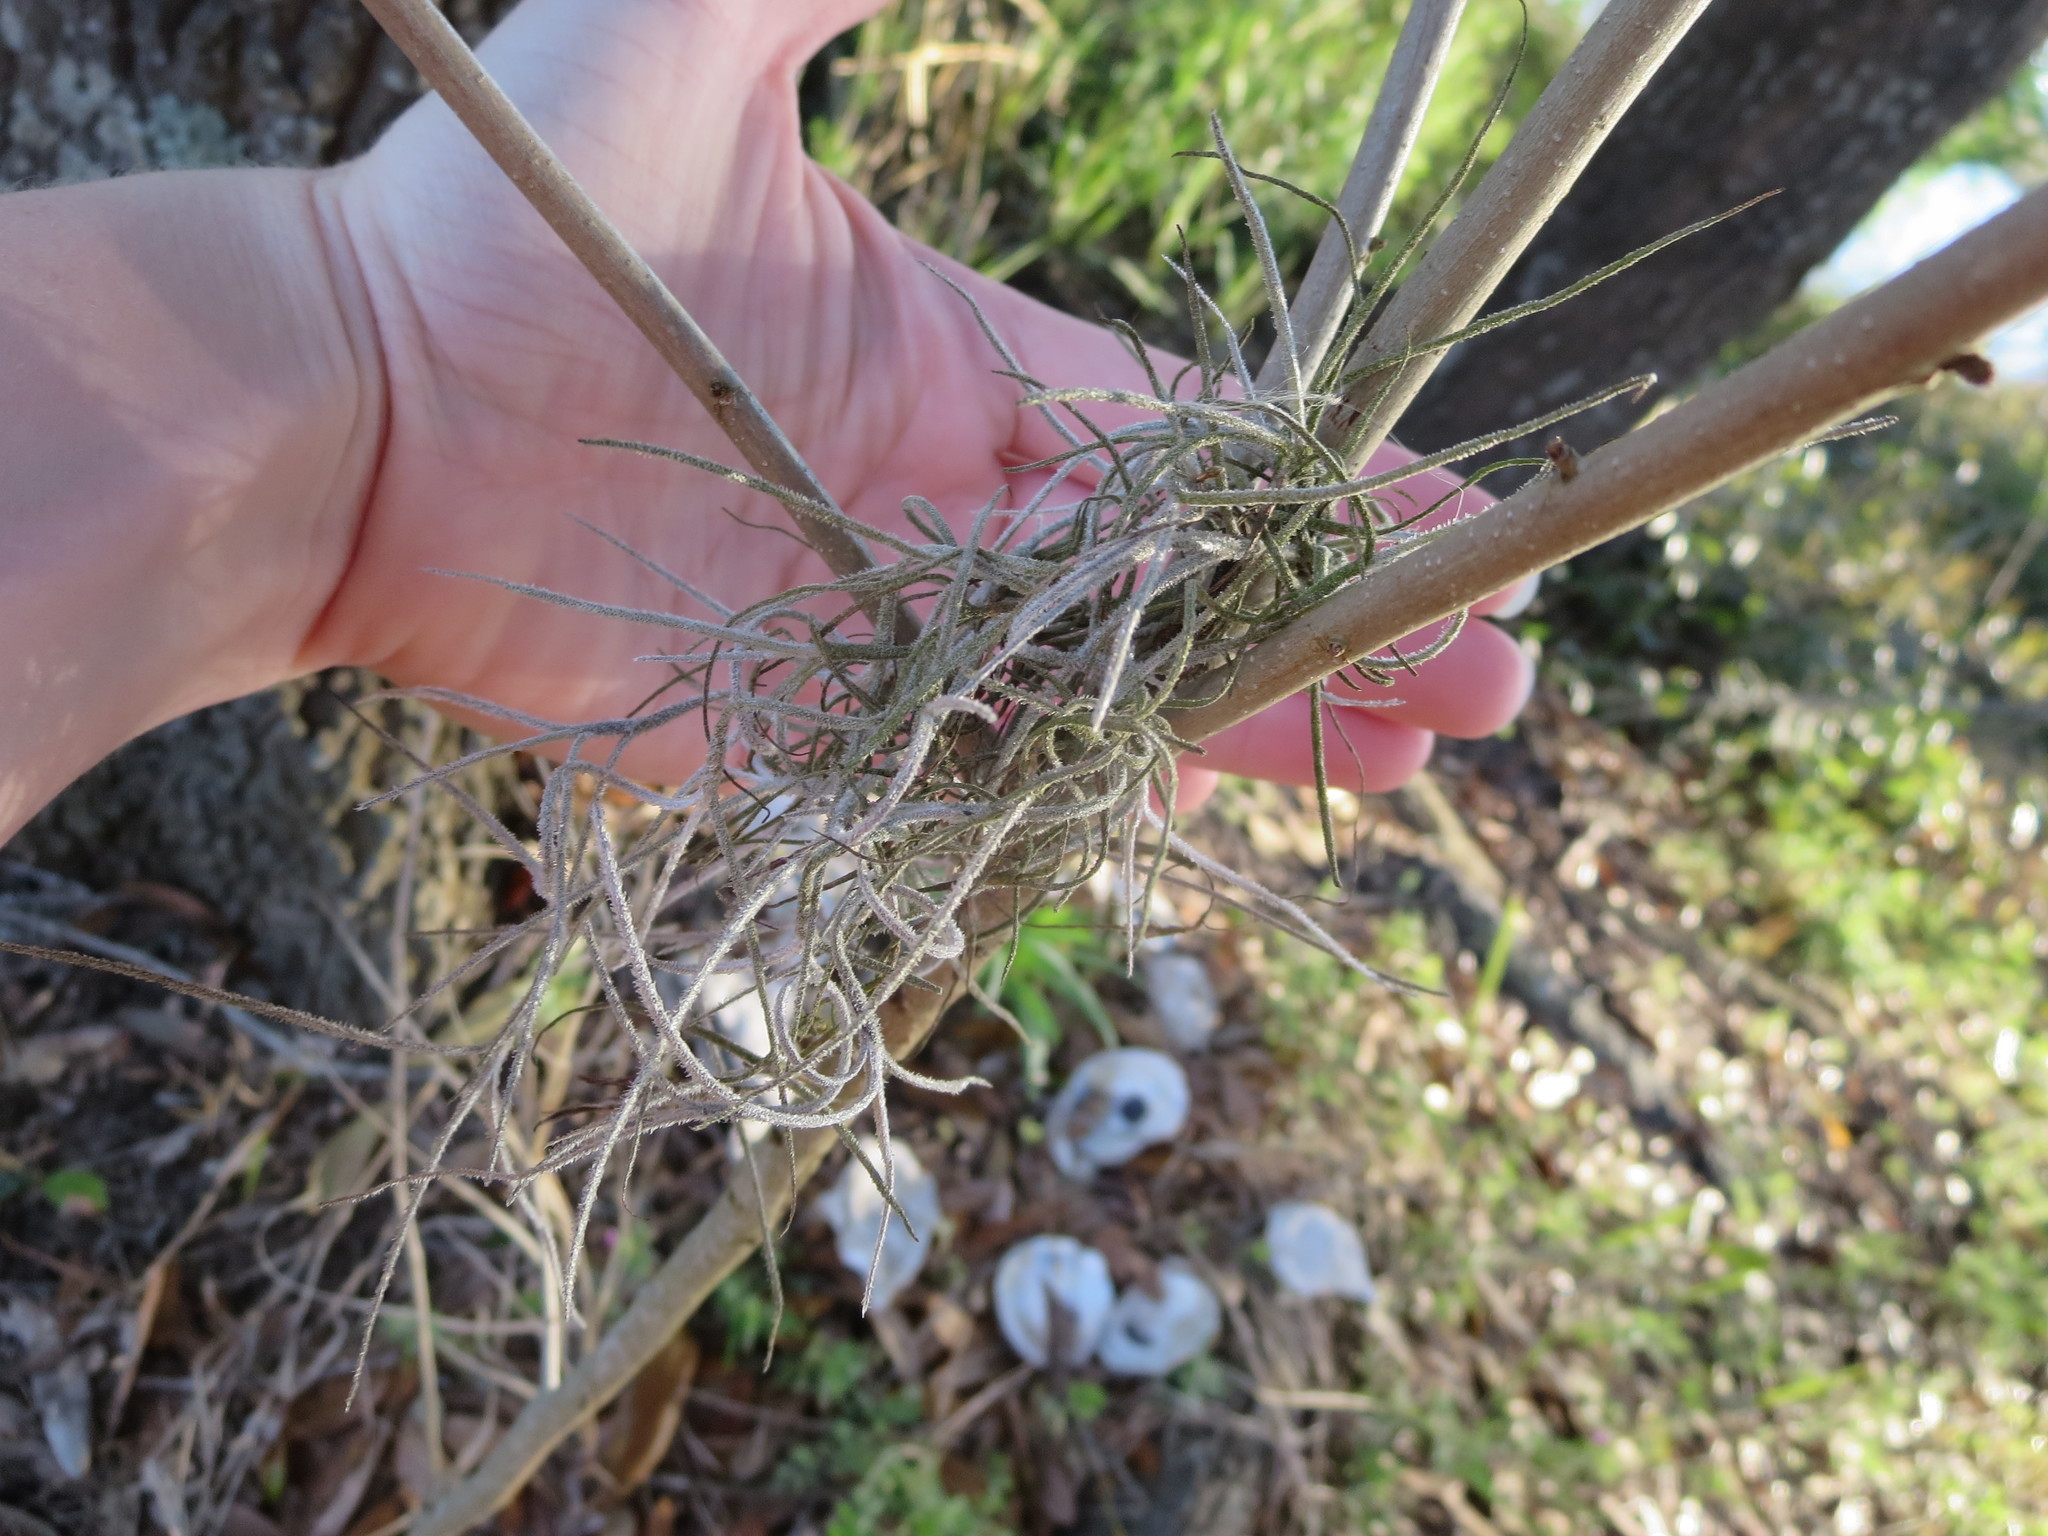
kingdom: Plantae
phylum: Tracheophyta
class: Liliopsida
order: Poales
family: Bromeliaceae
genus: Tillandsia
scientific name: Tillandsia usneoides
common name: Spanish moss
